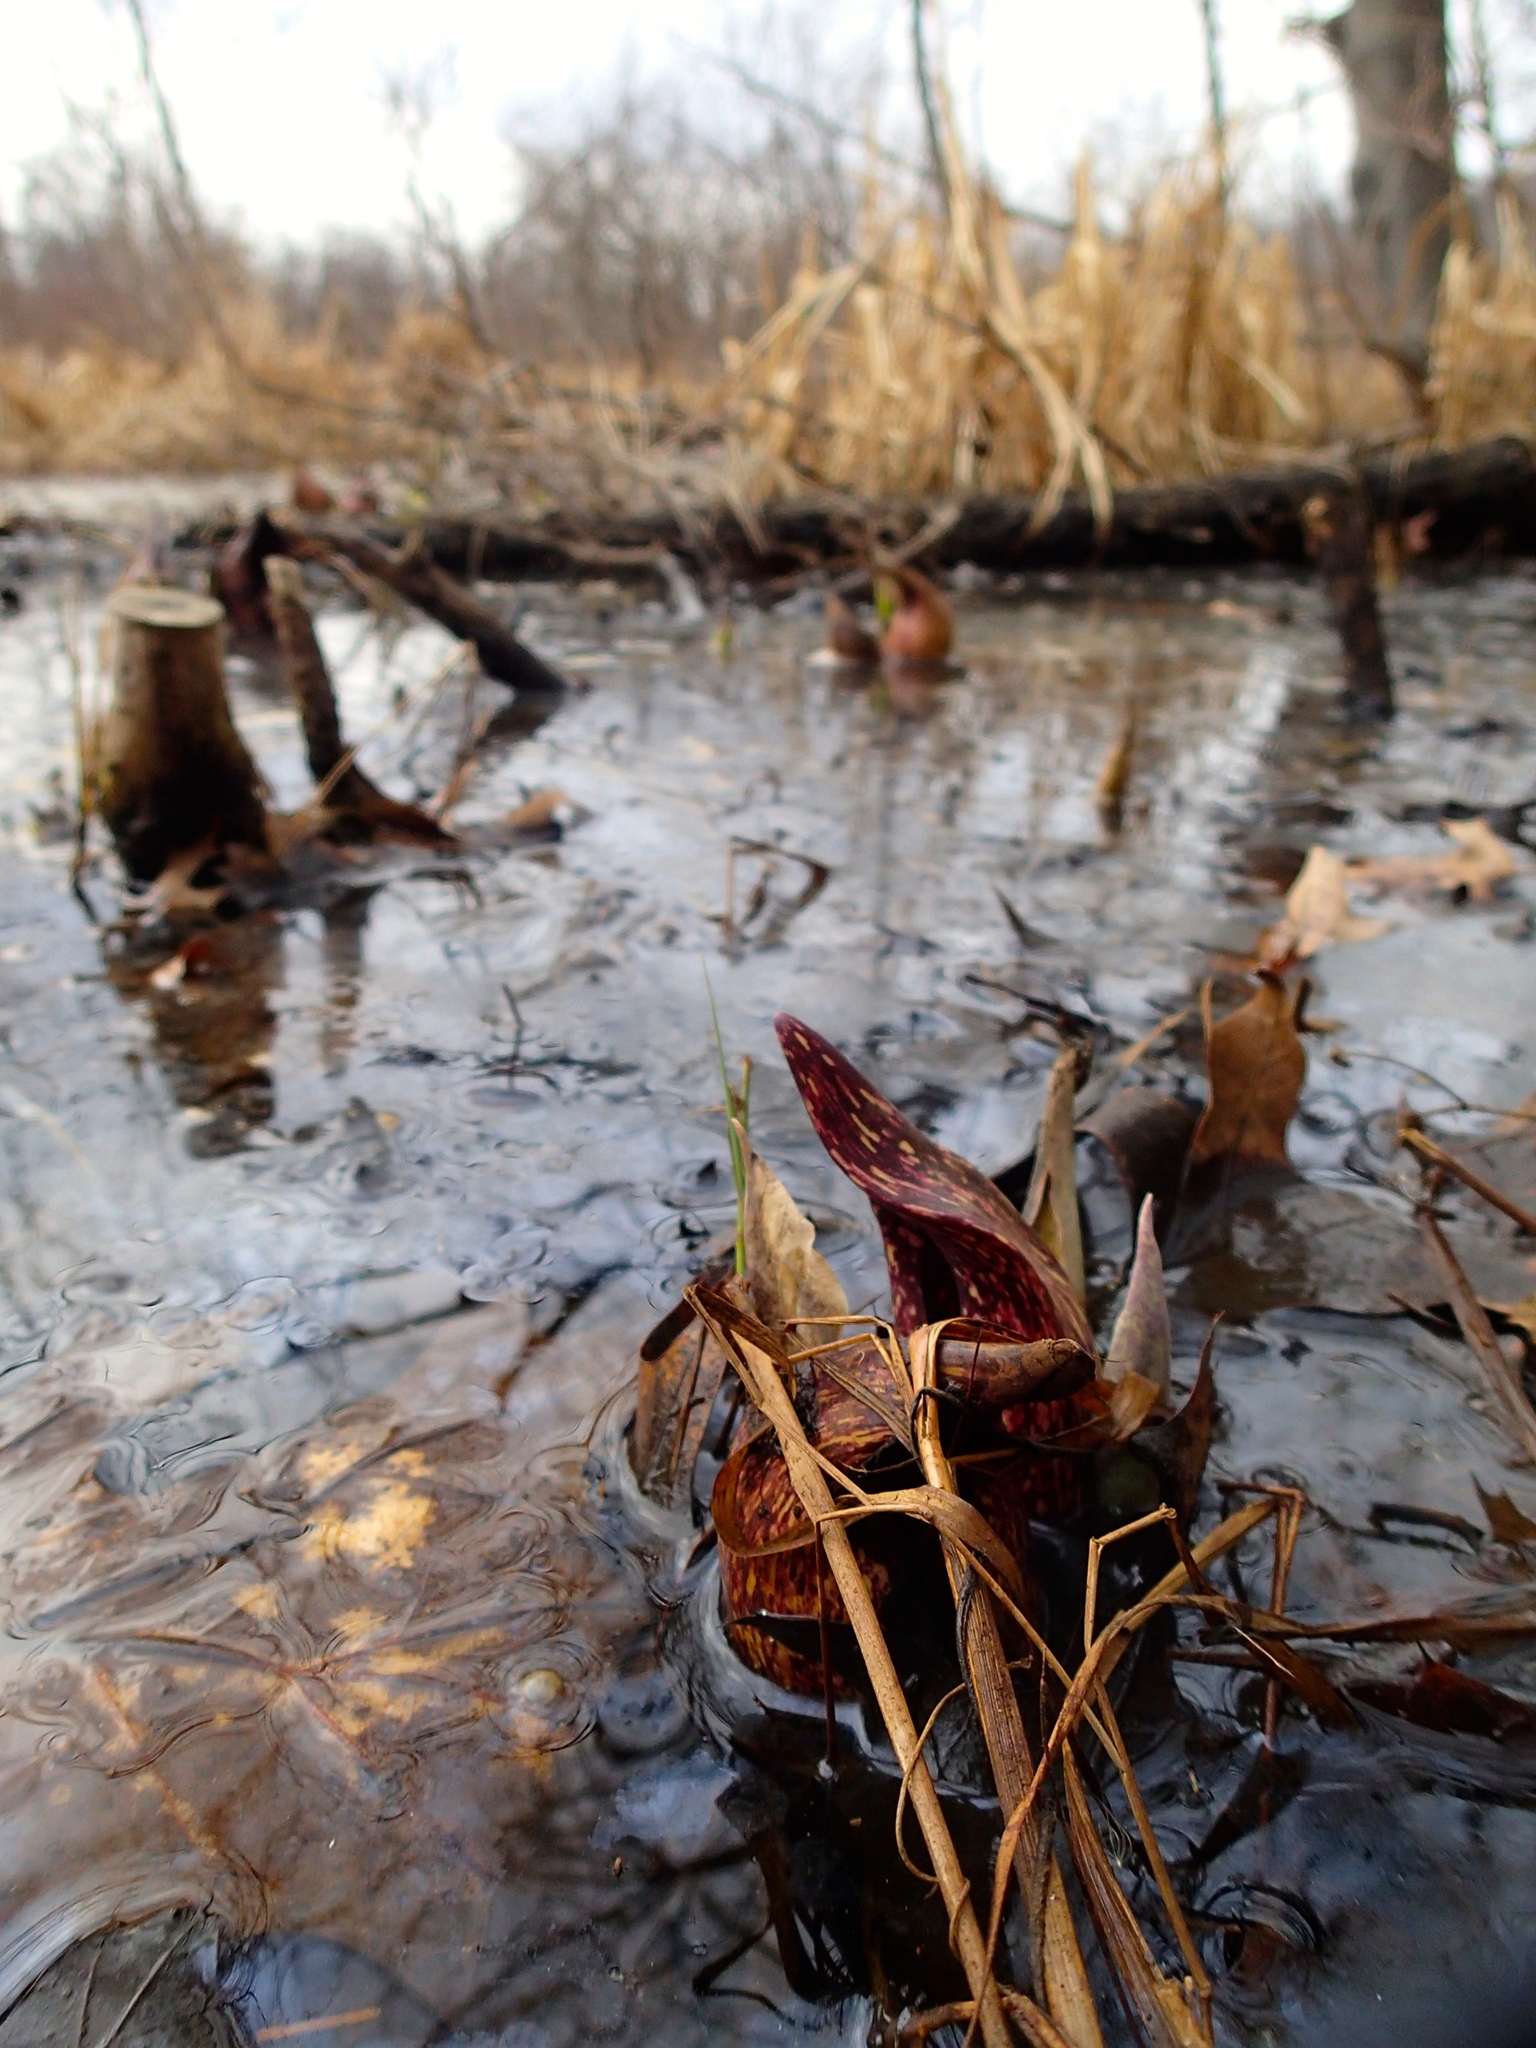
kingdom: Plantae
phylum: Tracheophyta
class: Liliopsida
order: Alismatales
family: Araceae
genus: Symplocarpus
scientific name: Symplocarpus foetidus
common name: Eastern skunk cabbage
